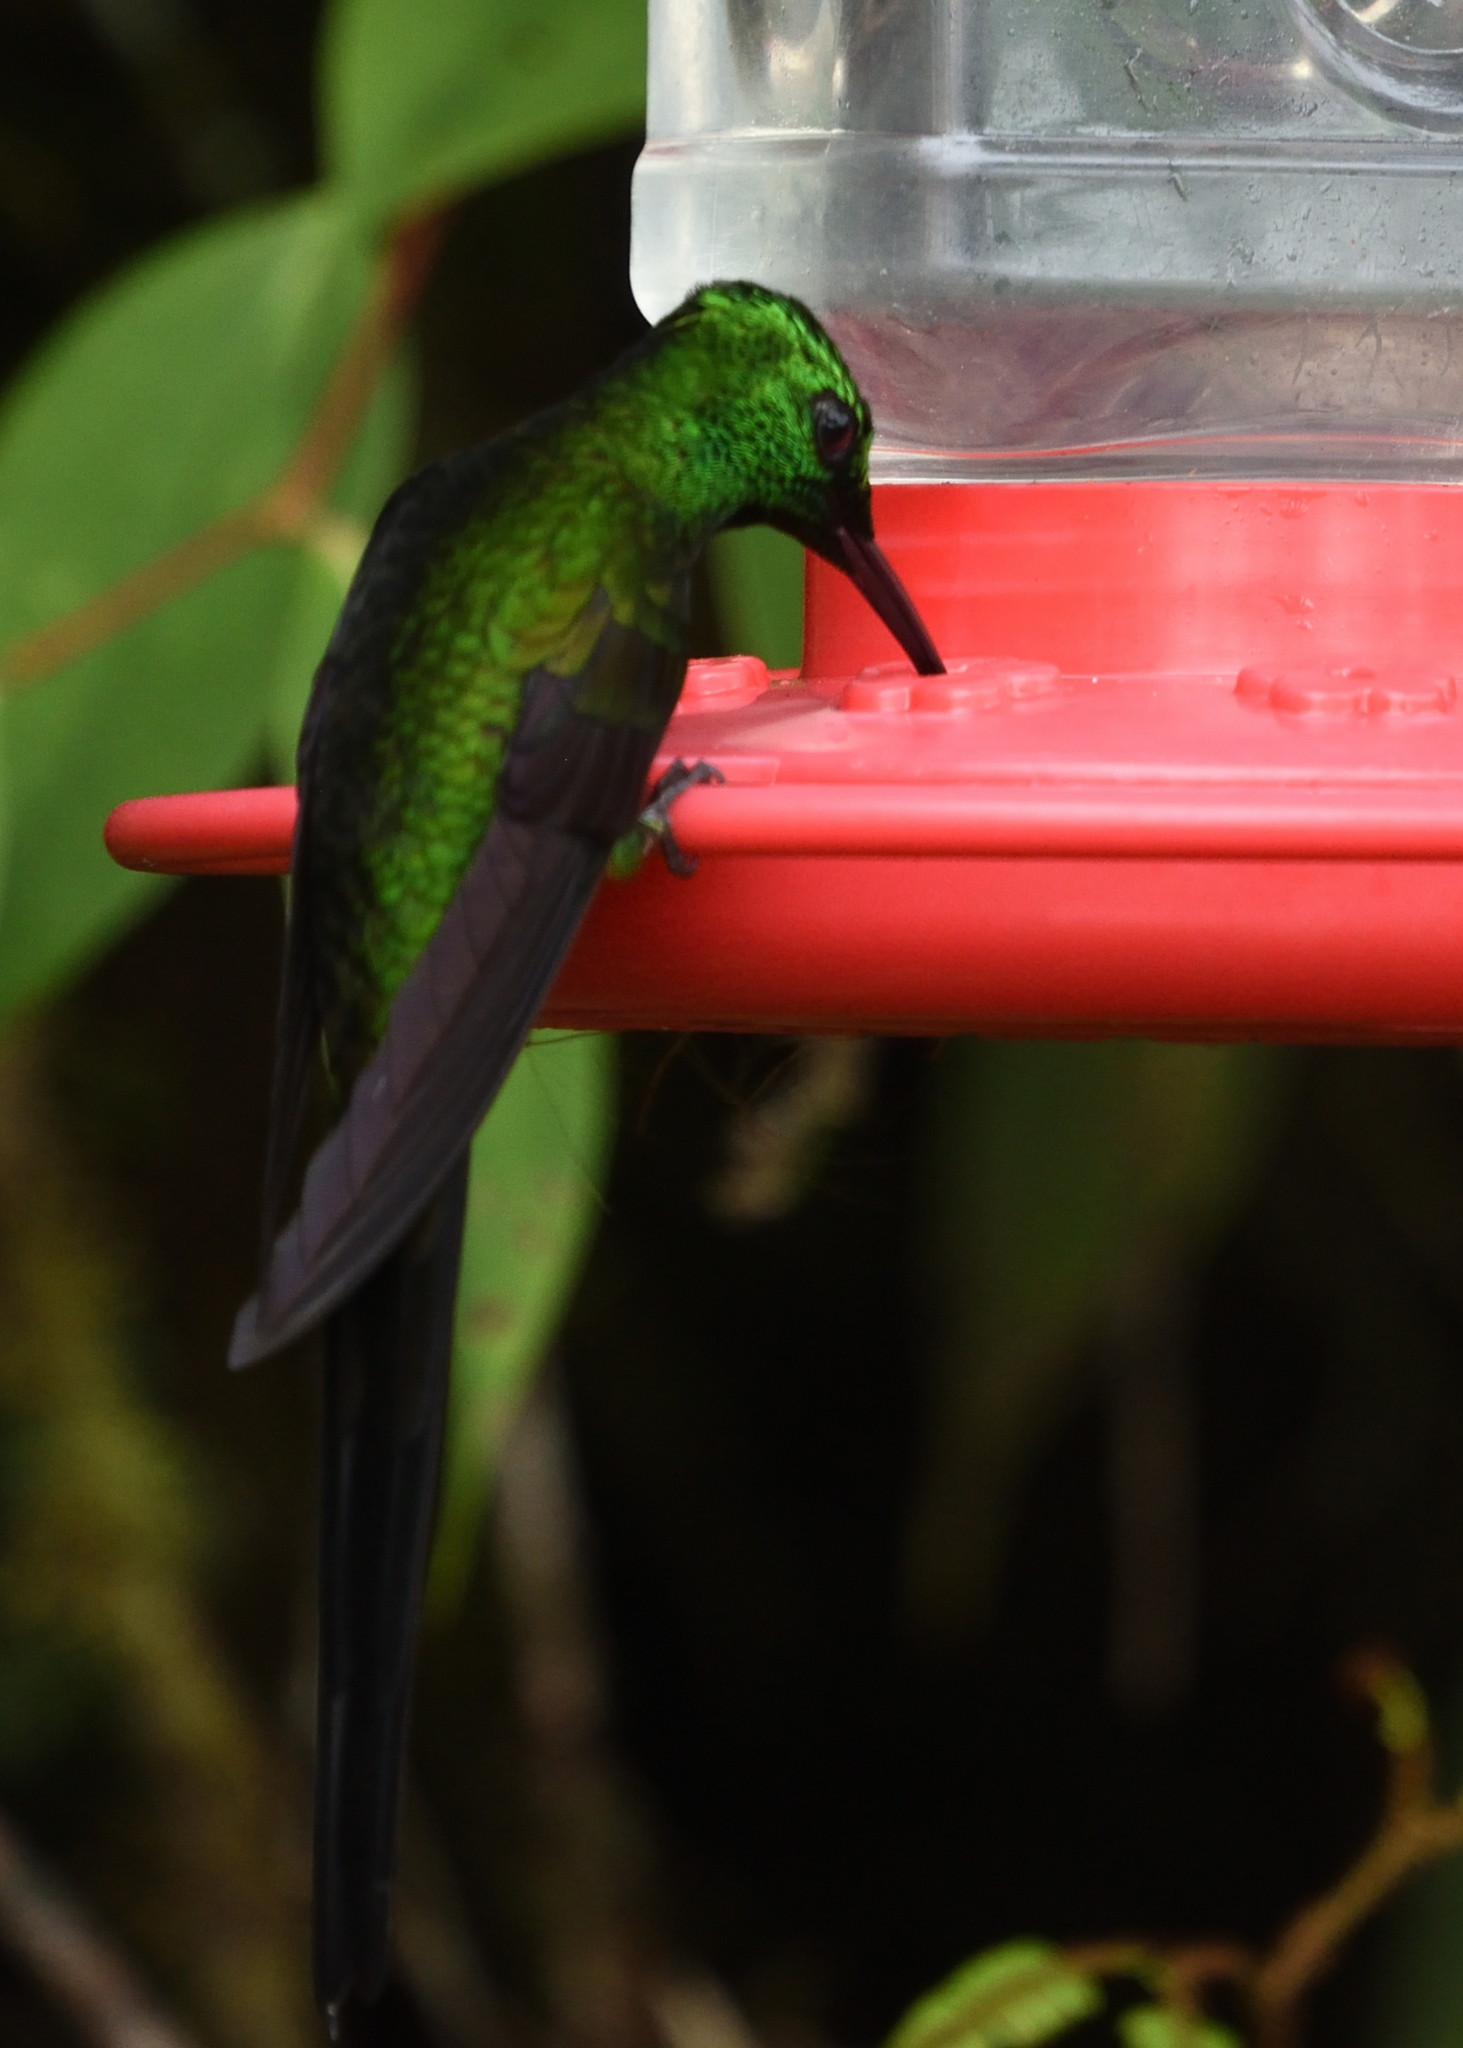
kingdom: Animalia
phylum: Chordata
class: Aves
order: Apodiformes
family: Trochilidae
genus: Aglaiocercus
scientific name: Aglaiocercus coelestis
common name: Violet-tailed sylph
